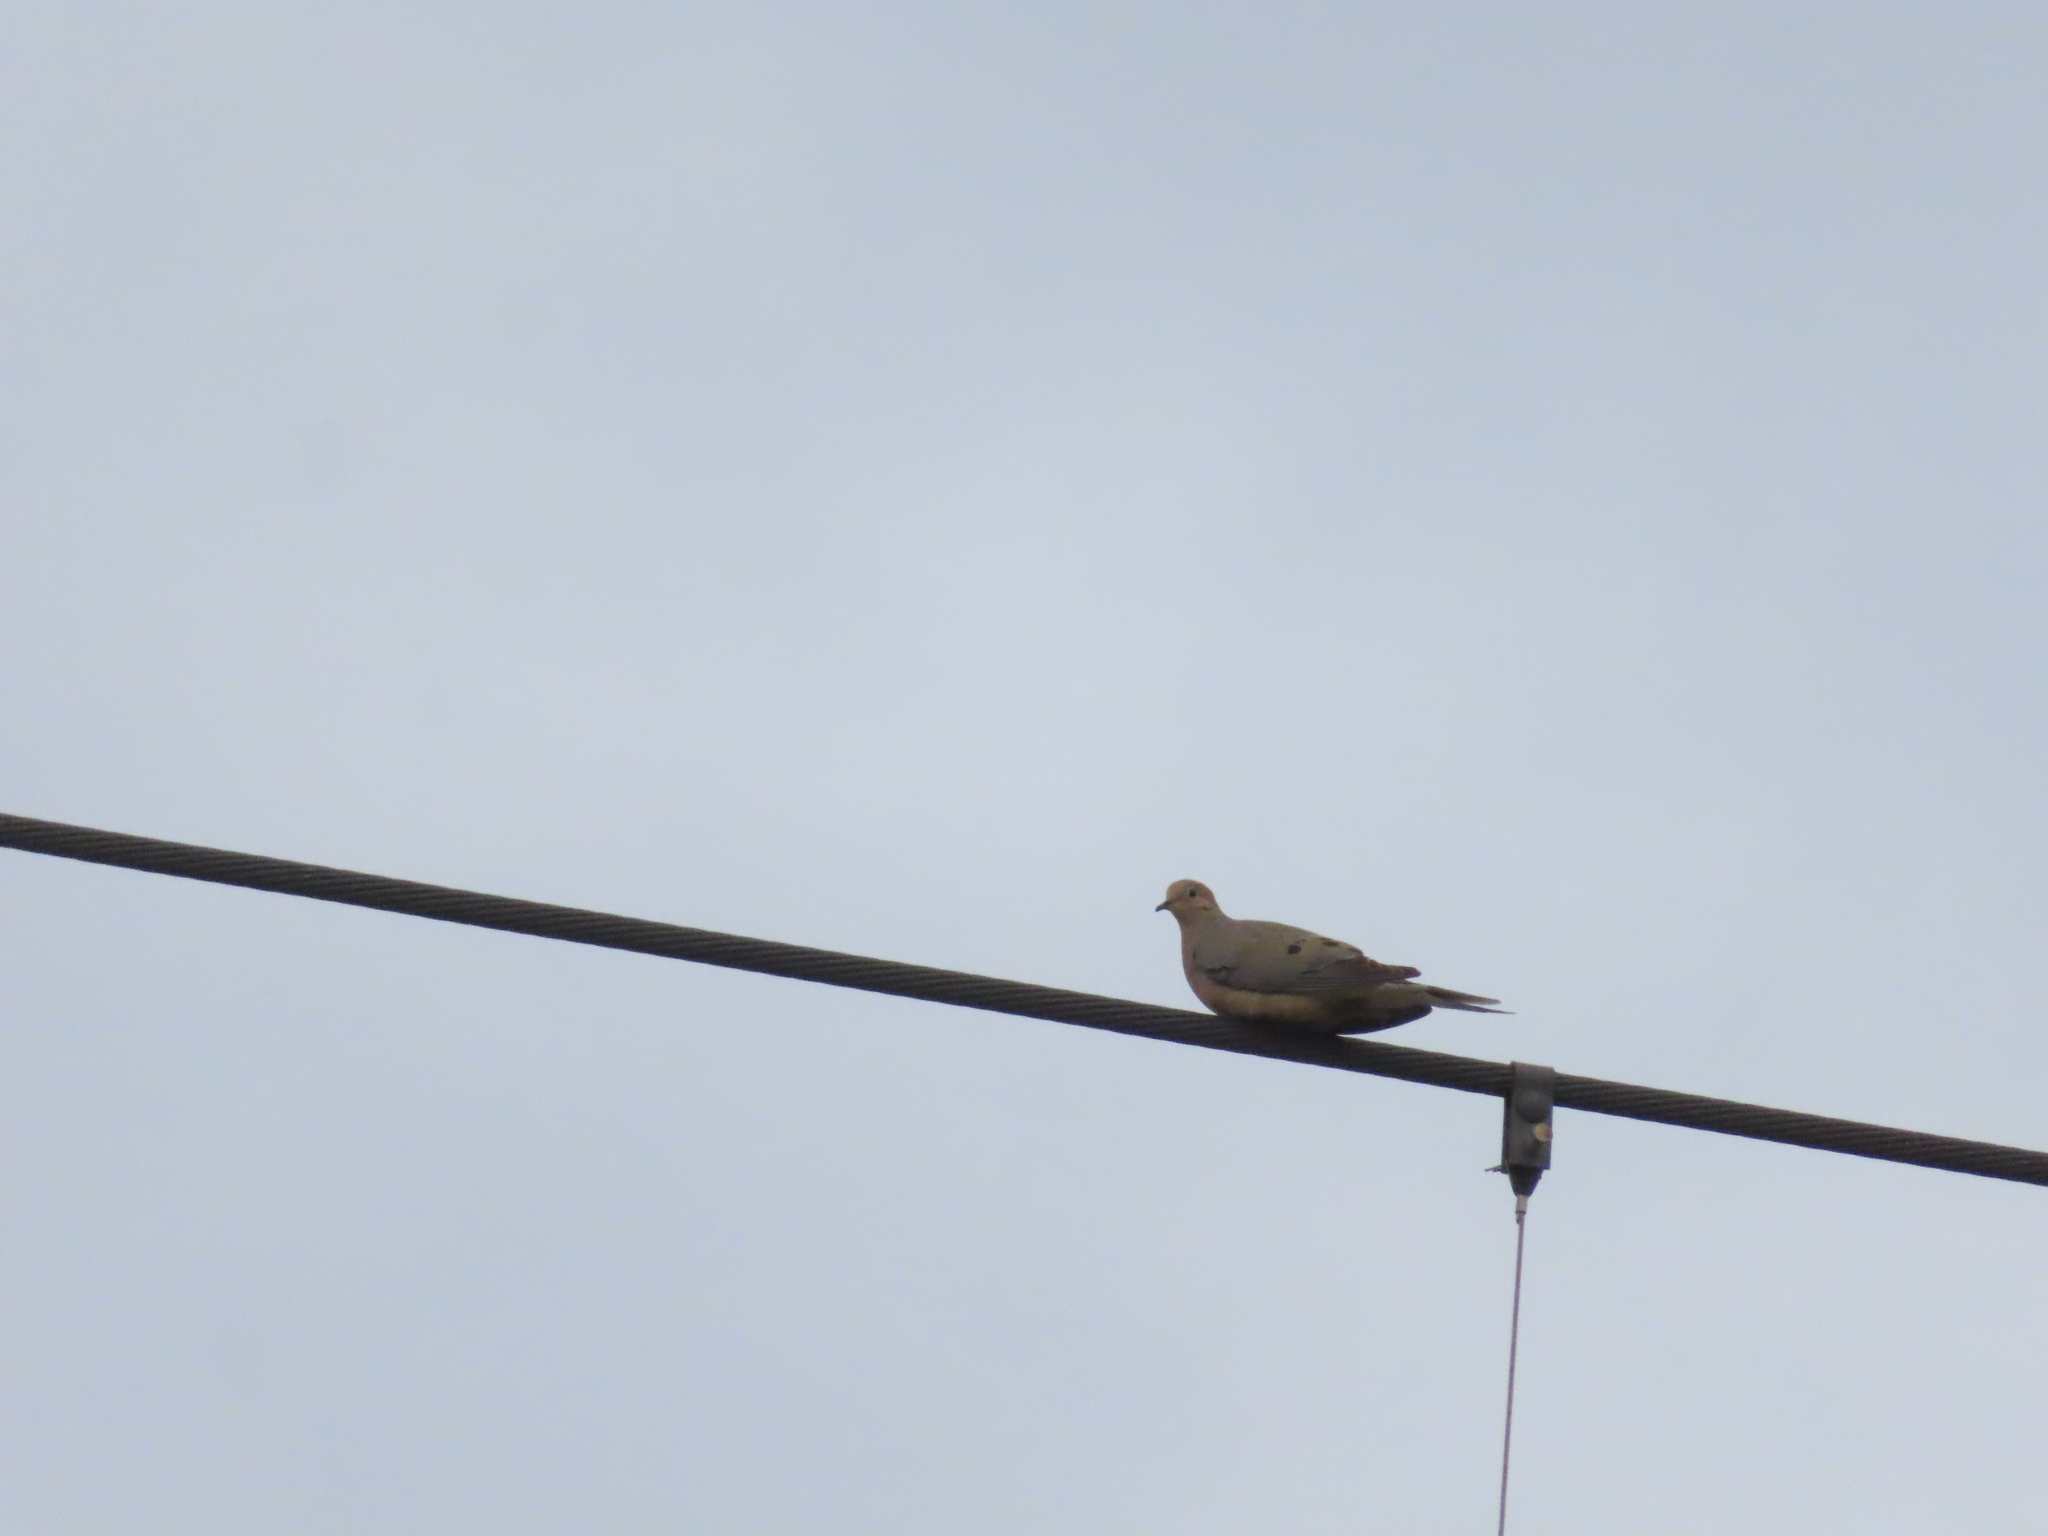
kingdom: Animalia
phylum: Chordata
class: Aves
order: Columbiformes
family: Columbidae
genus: Zenaida
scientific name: Zenaida macroura
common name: Mourning dove
